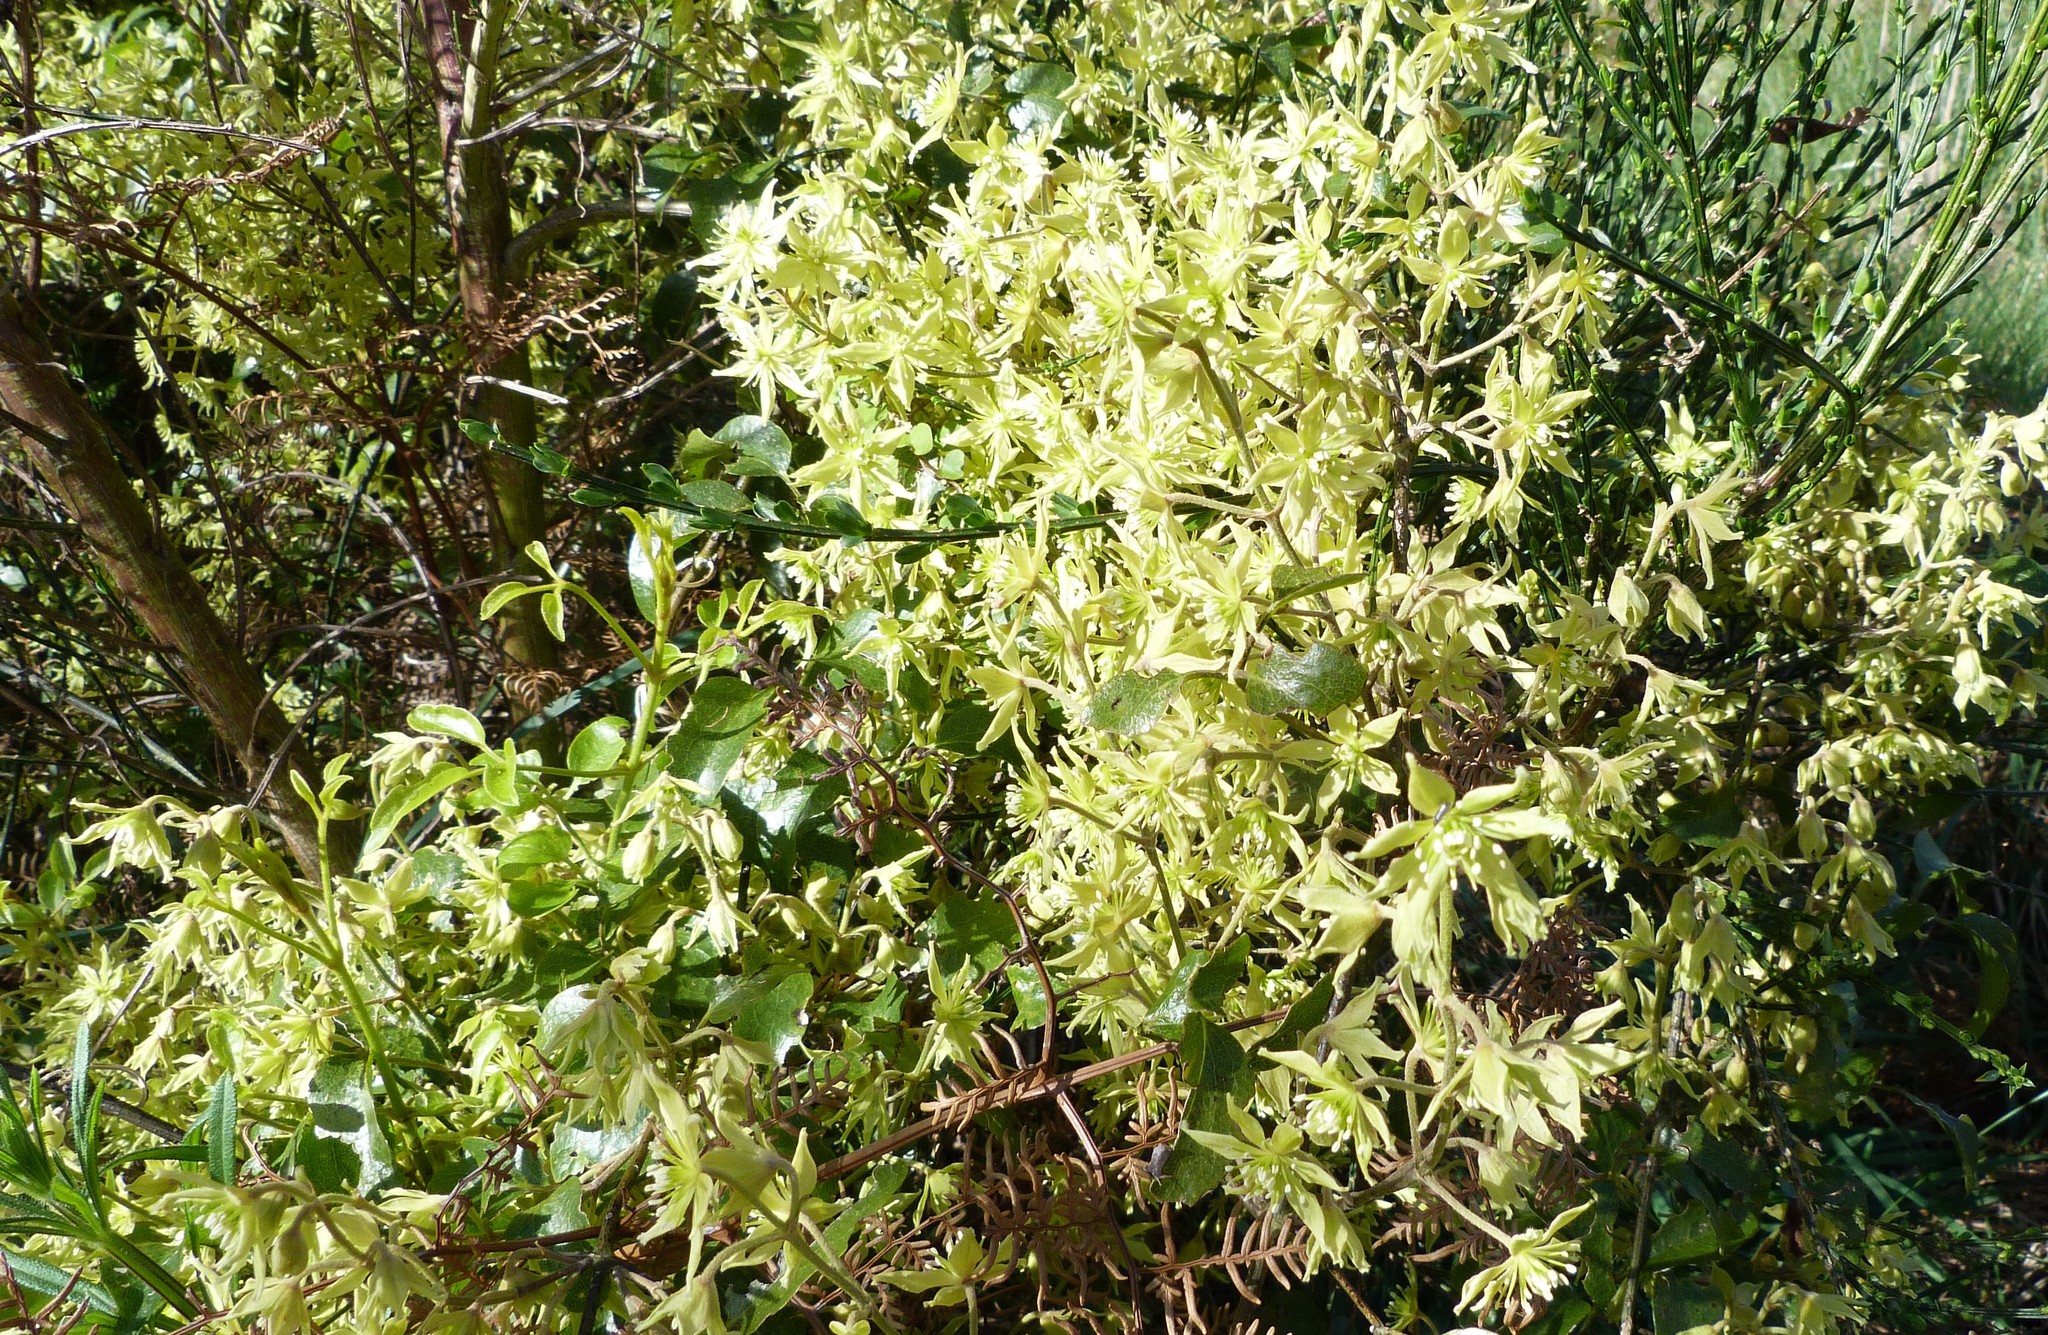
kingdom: Plantae
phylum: Tracheophyta
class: Magnoliopsida
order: Ranunculales
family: Ranunculaceae
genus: Clematis
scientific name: Clematis foetida
